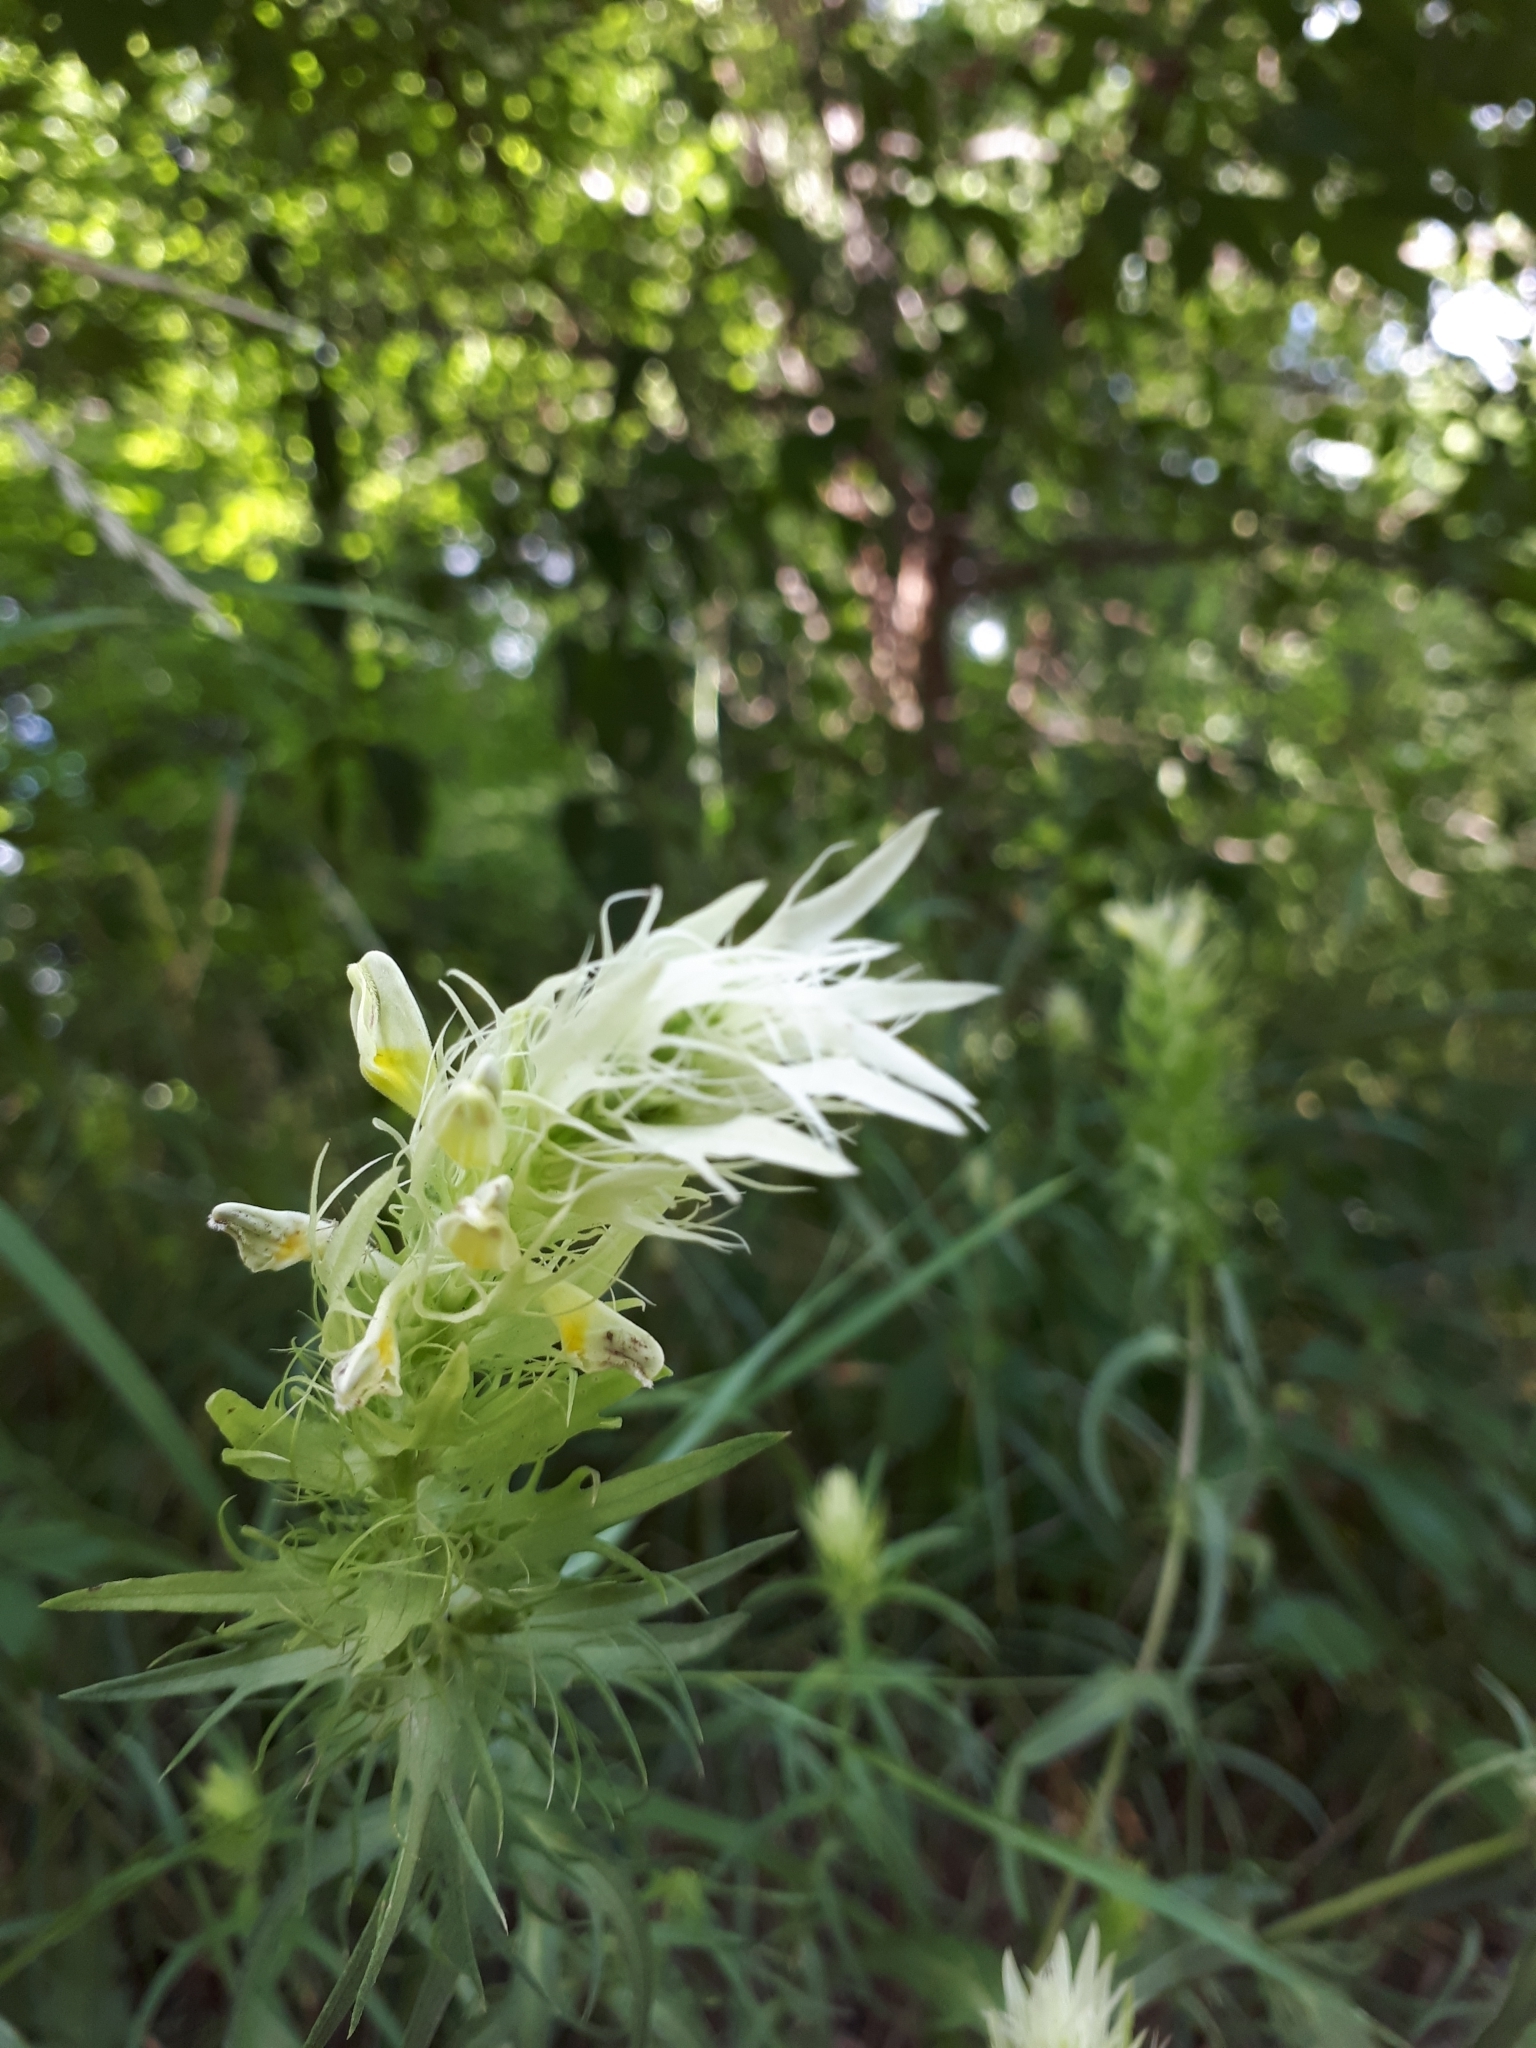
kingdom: Plantae
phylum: Tracheophyta
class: Magnoliopsida
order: Lamiales
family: Orobanchaceae
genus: Melampyrum
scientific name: Melampyrum arvense
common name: Field cow-wheat
